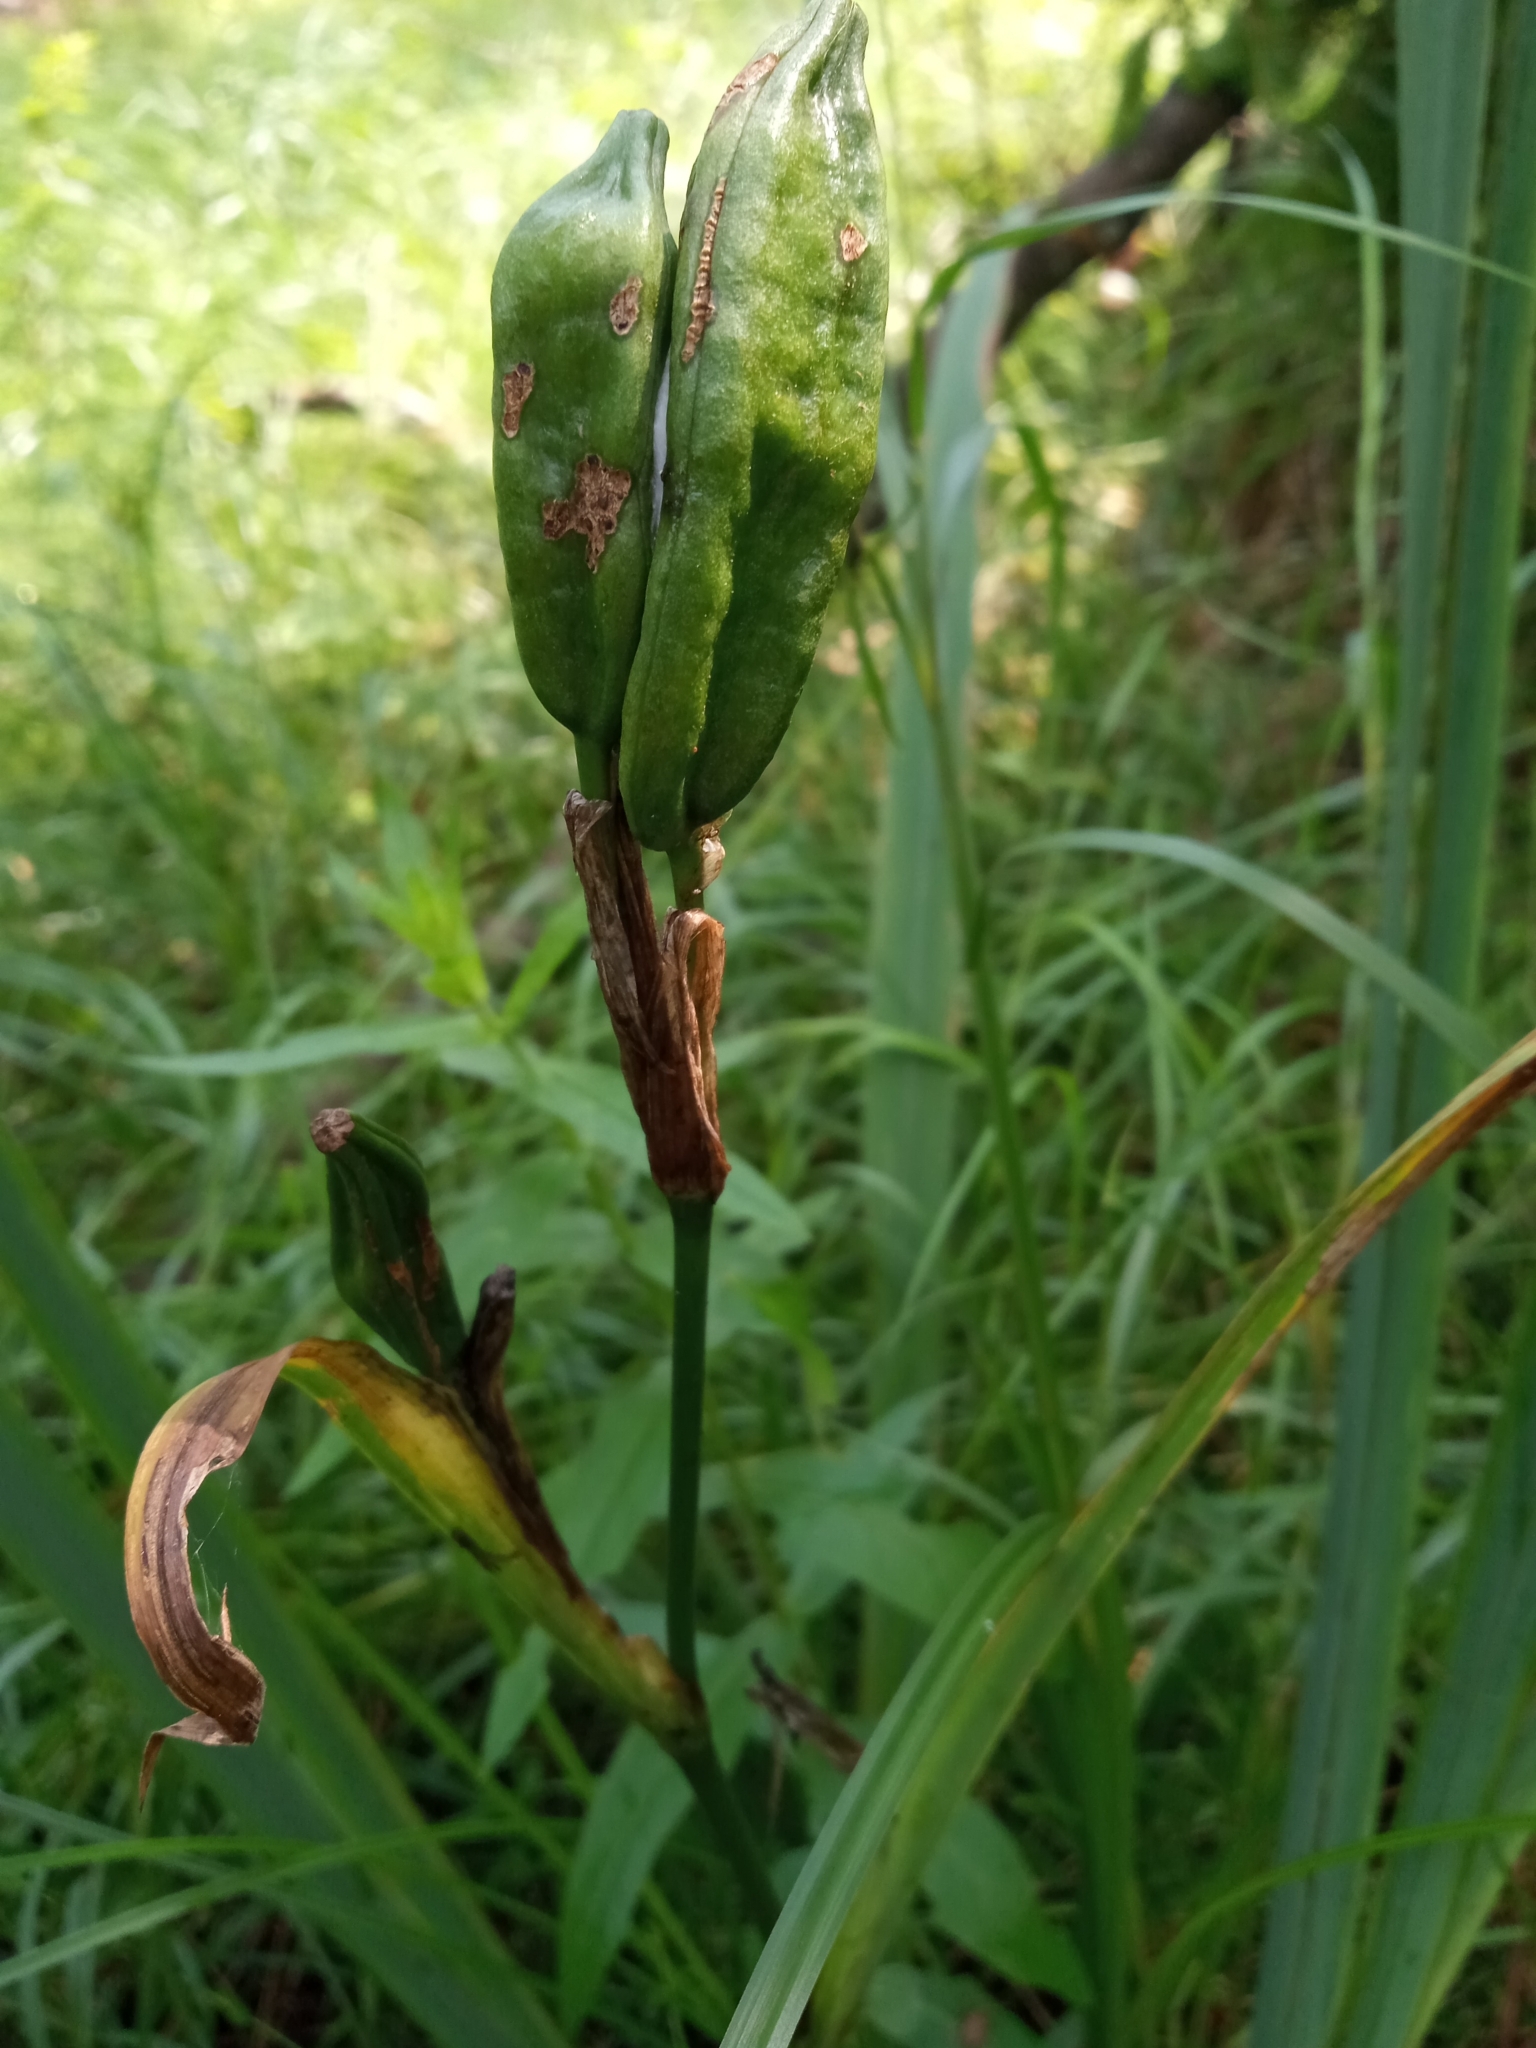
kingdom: Plantae
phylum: Tracheophyta
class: Liliopsida
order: Asparagales
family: Iridaceae
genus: Iris
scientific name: Iris pseudacorus
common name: Yellow flag
